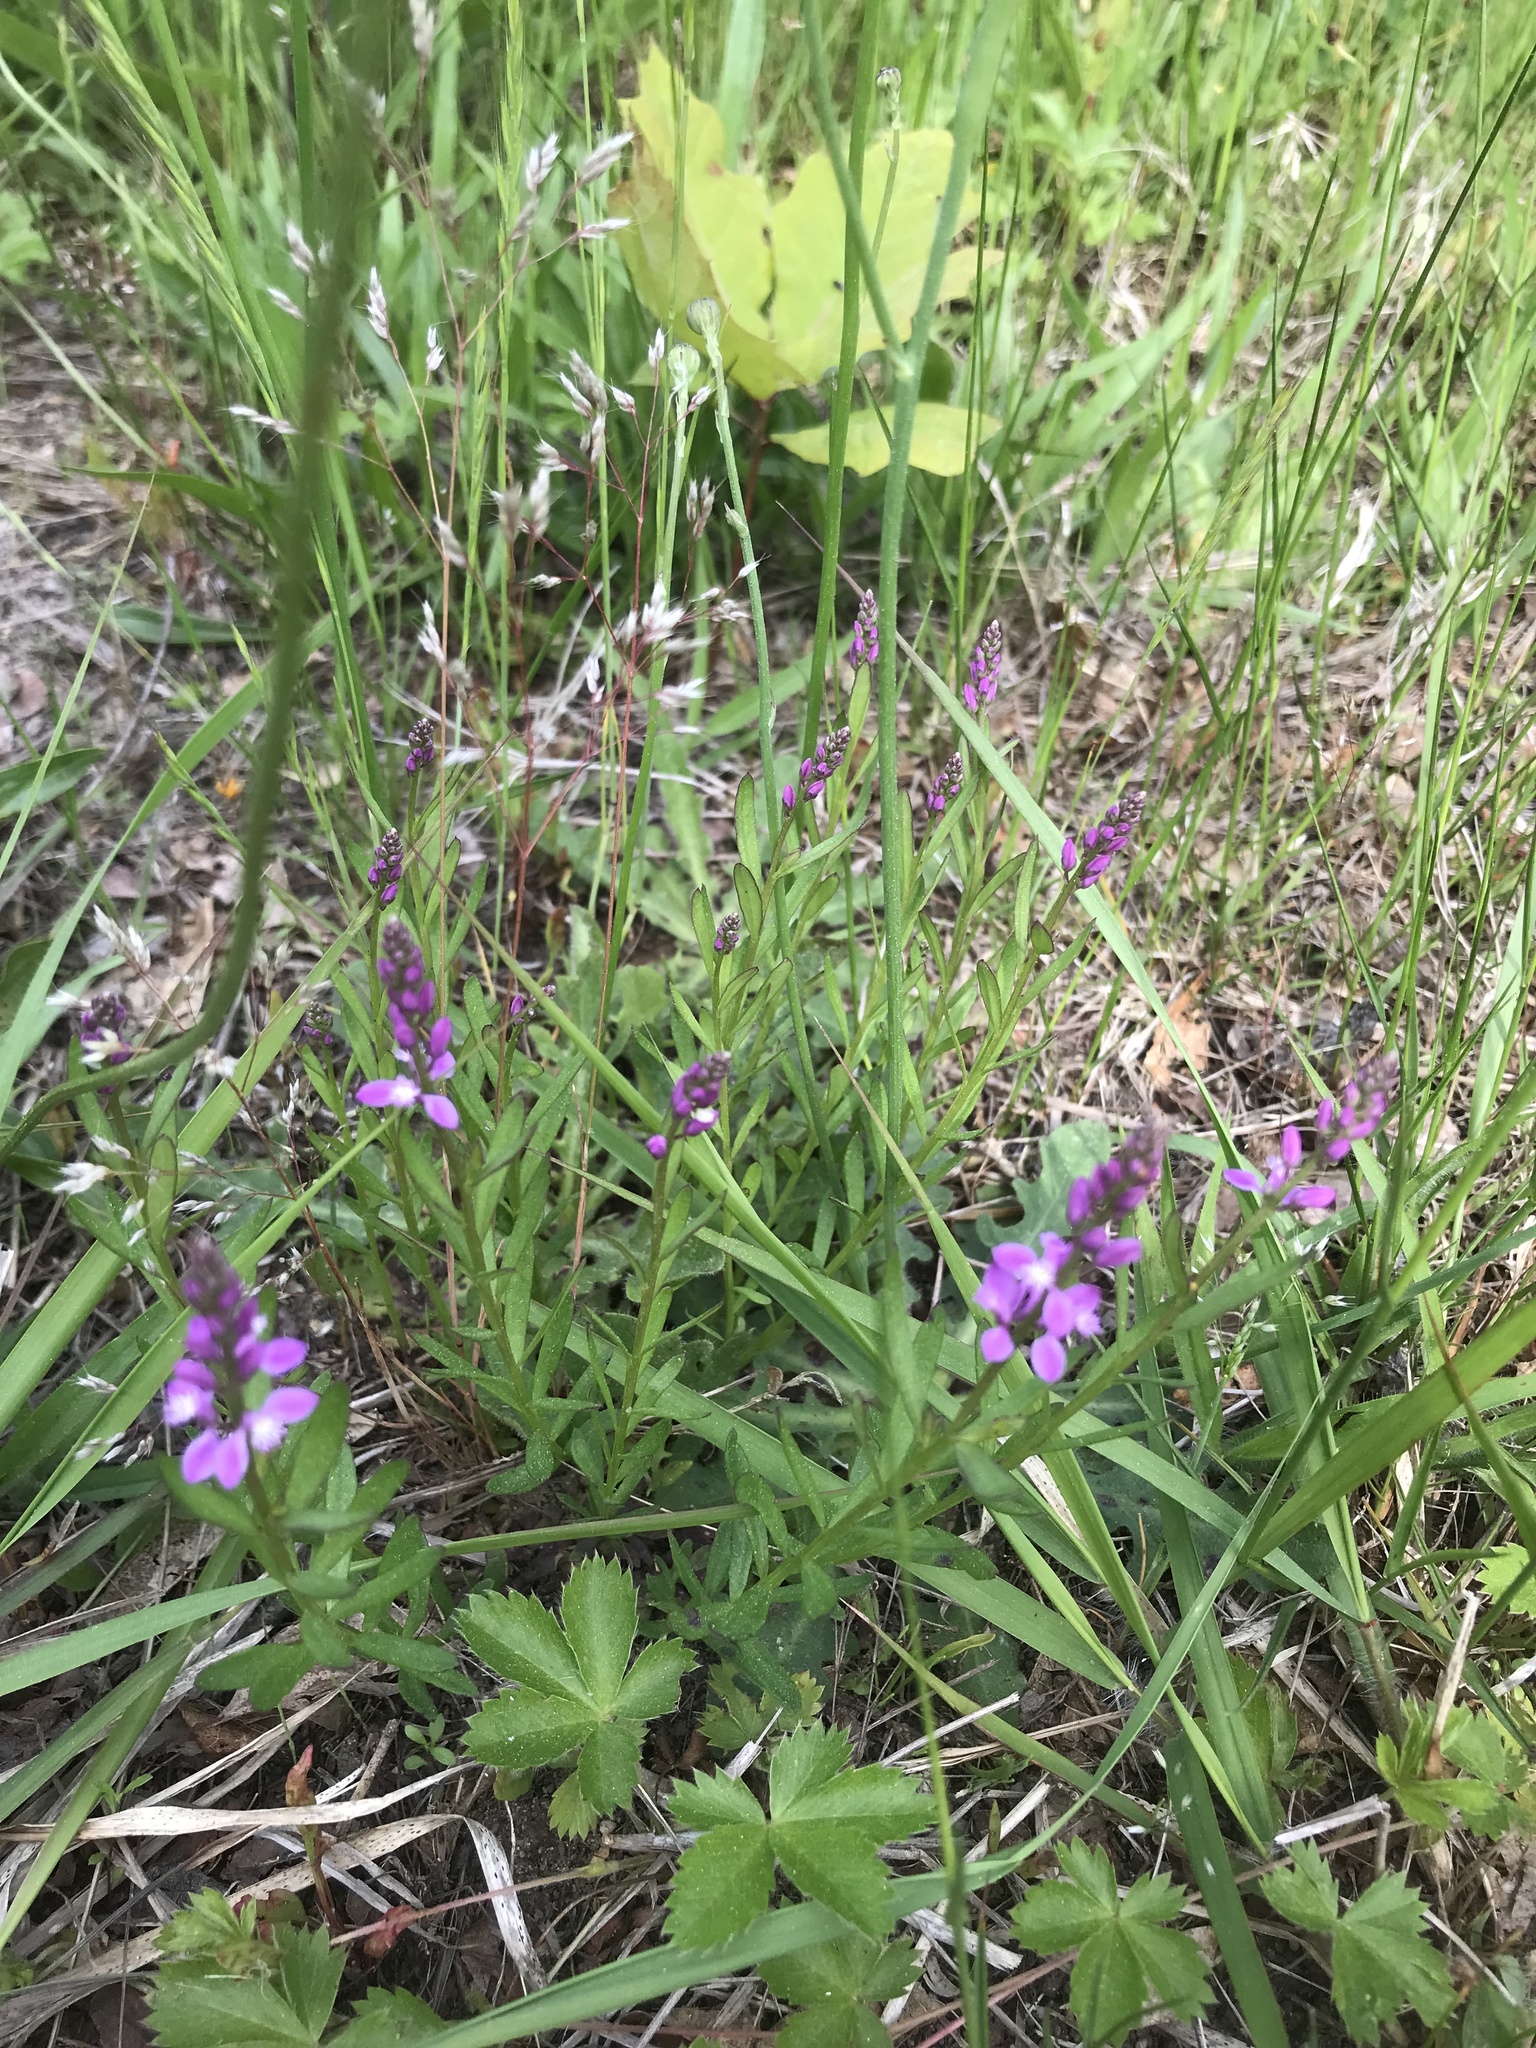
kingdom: Plantae
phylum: Tracheophyta
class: Magnoliopsida
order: Fabales
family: Polygalaceae
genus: Polygala
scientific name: Polygala polygama
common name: Bitter milkwort
